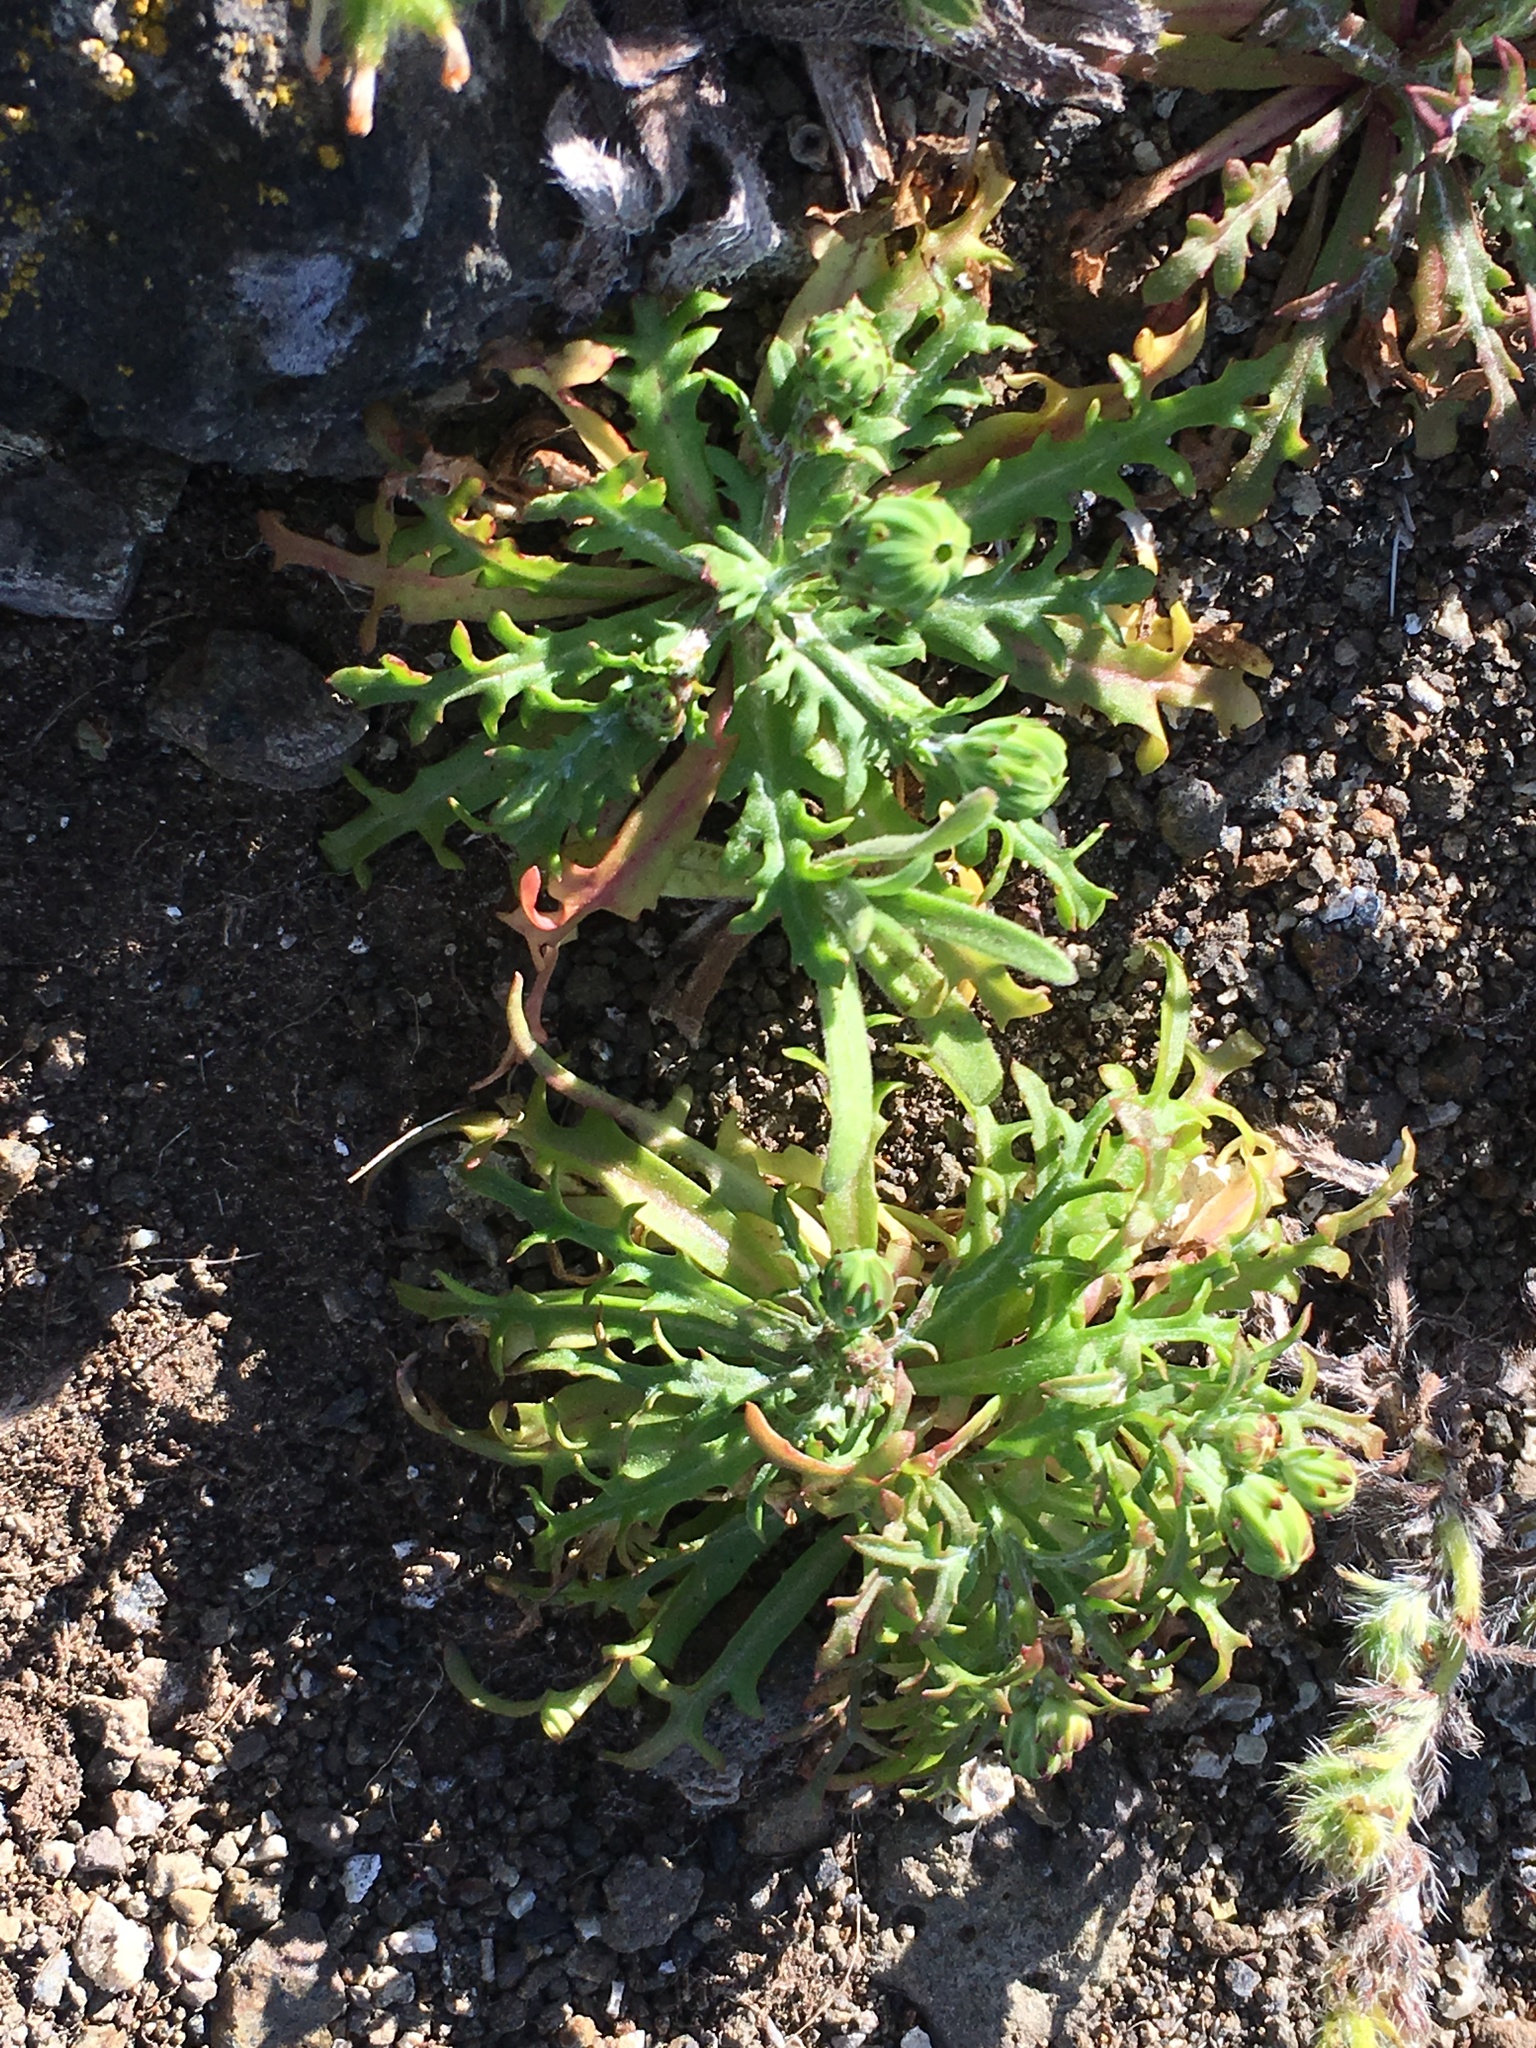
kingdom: Plantae
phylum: Tracheophyta
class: Magnoliopsida
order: Asterales
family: Asteraceae
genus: Malacothrix
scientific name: Malacothrix foliosa
